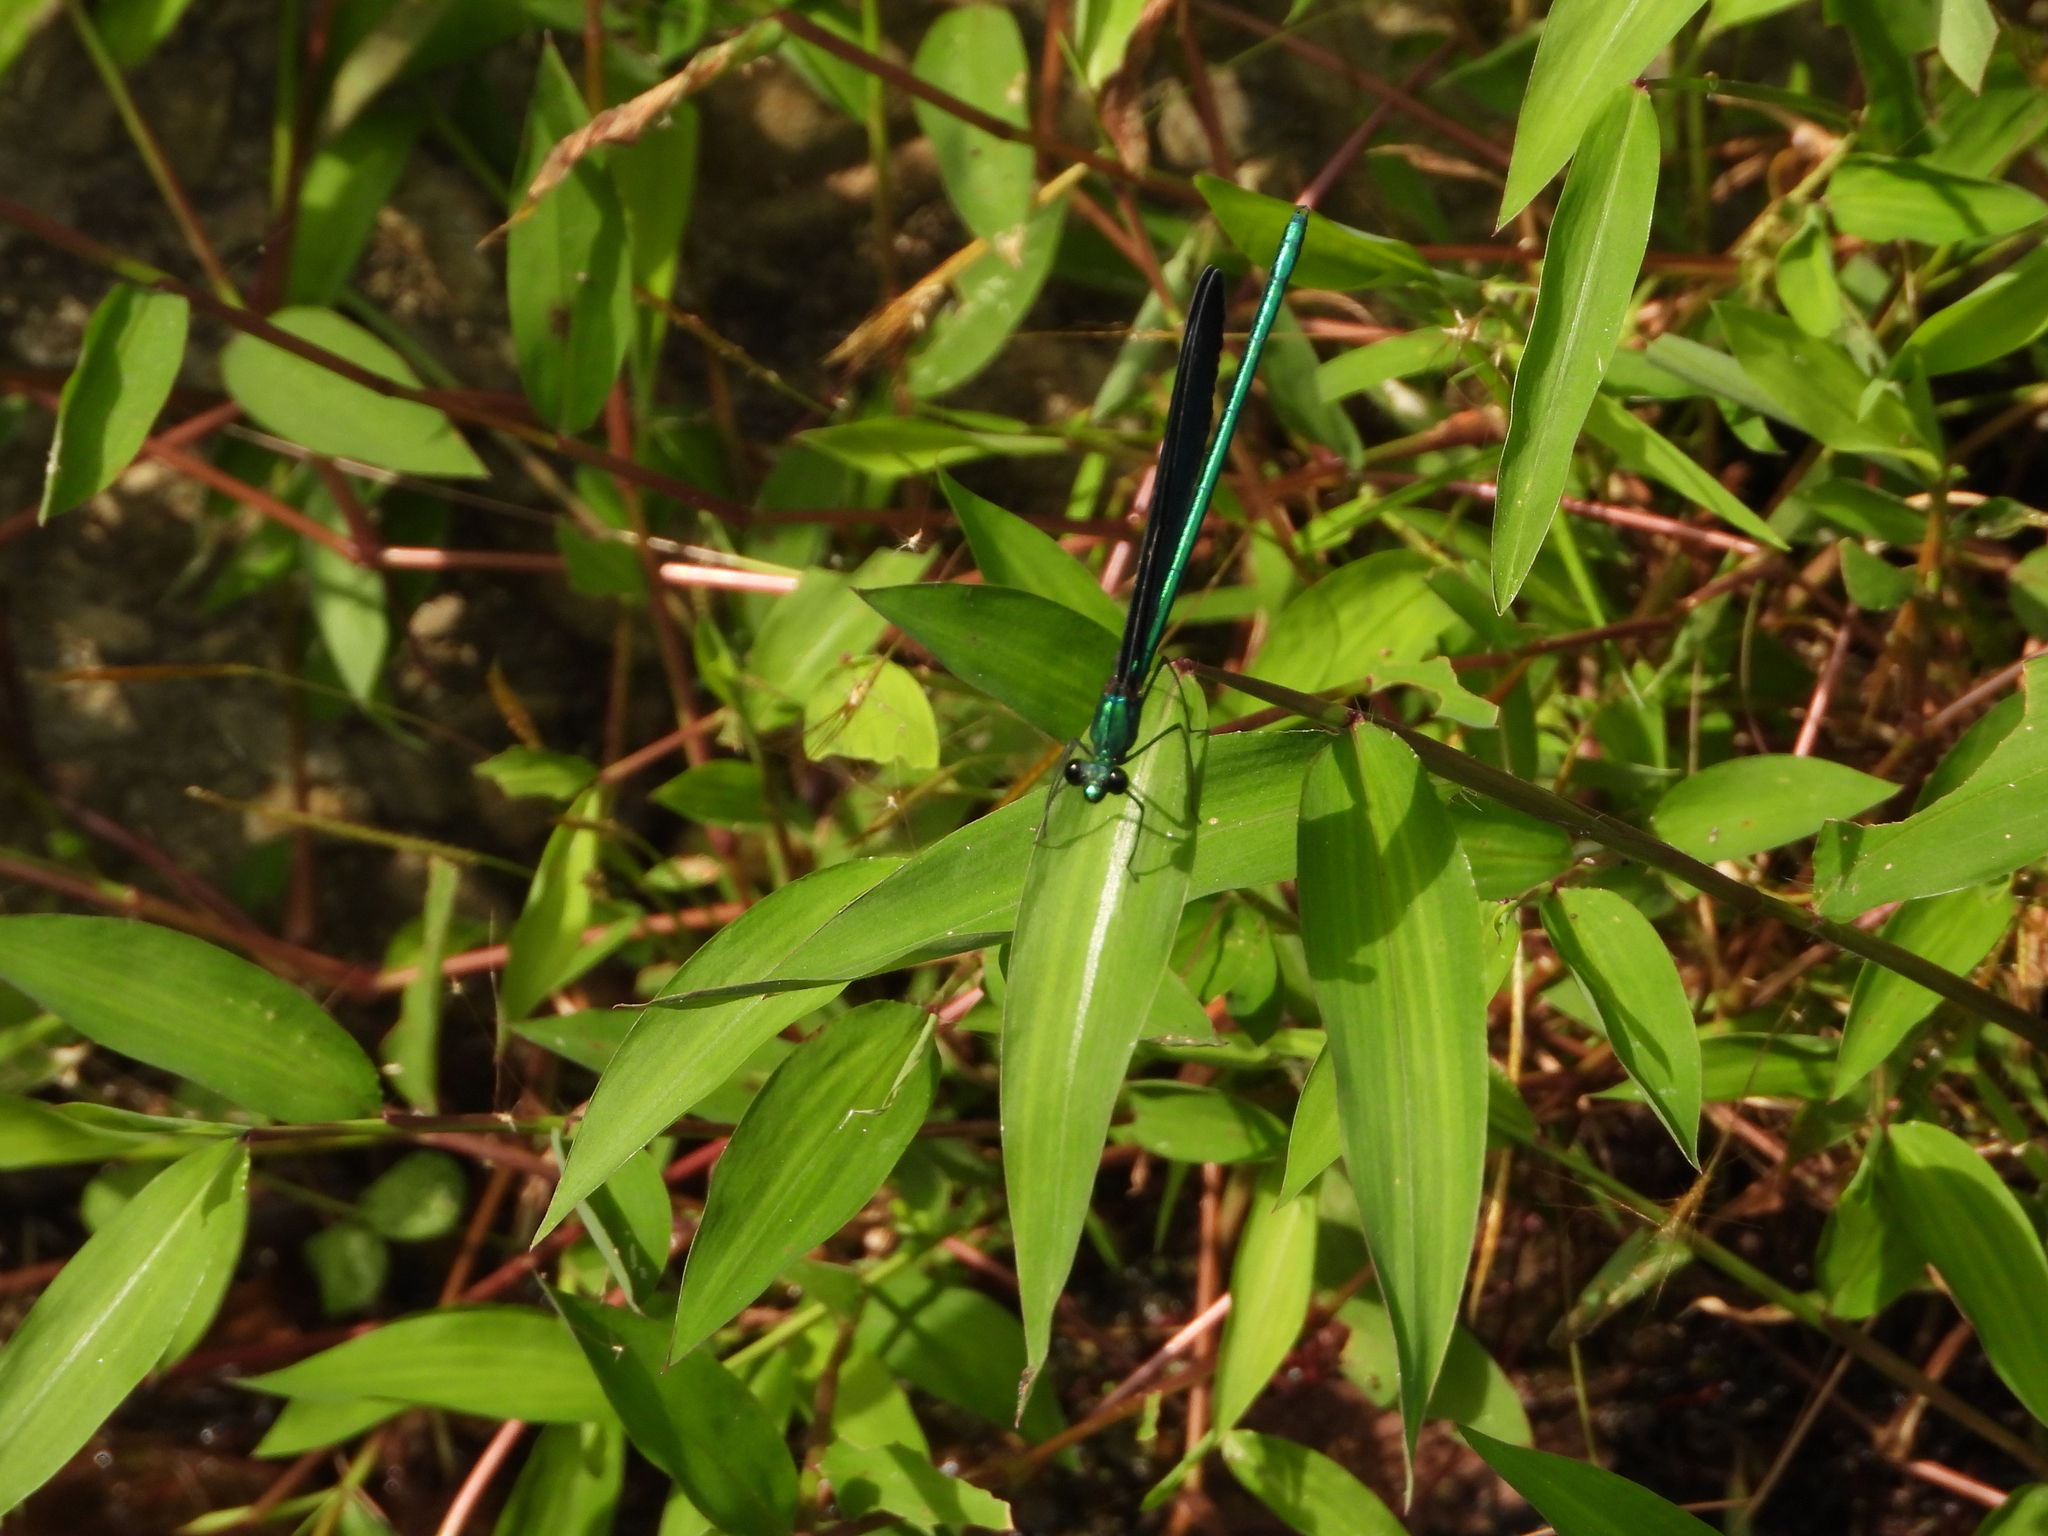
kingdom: Animalia
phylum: Arthropoda
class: Insecta
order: Odonata
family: Calopterygidae
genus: Matrona
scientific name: Matrona cyanoptera
